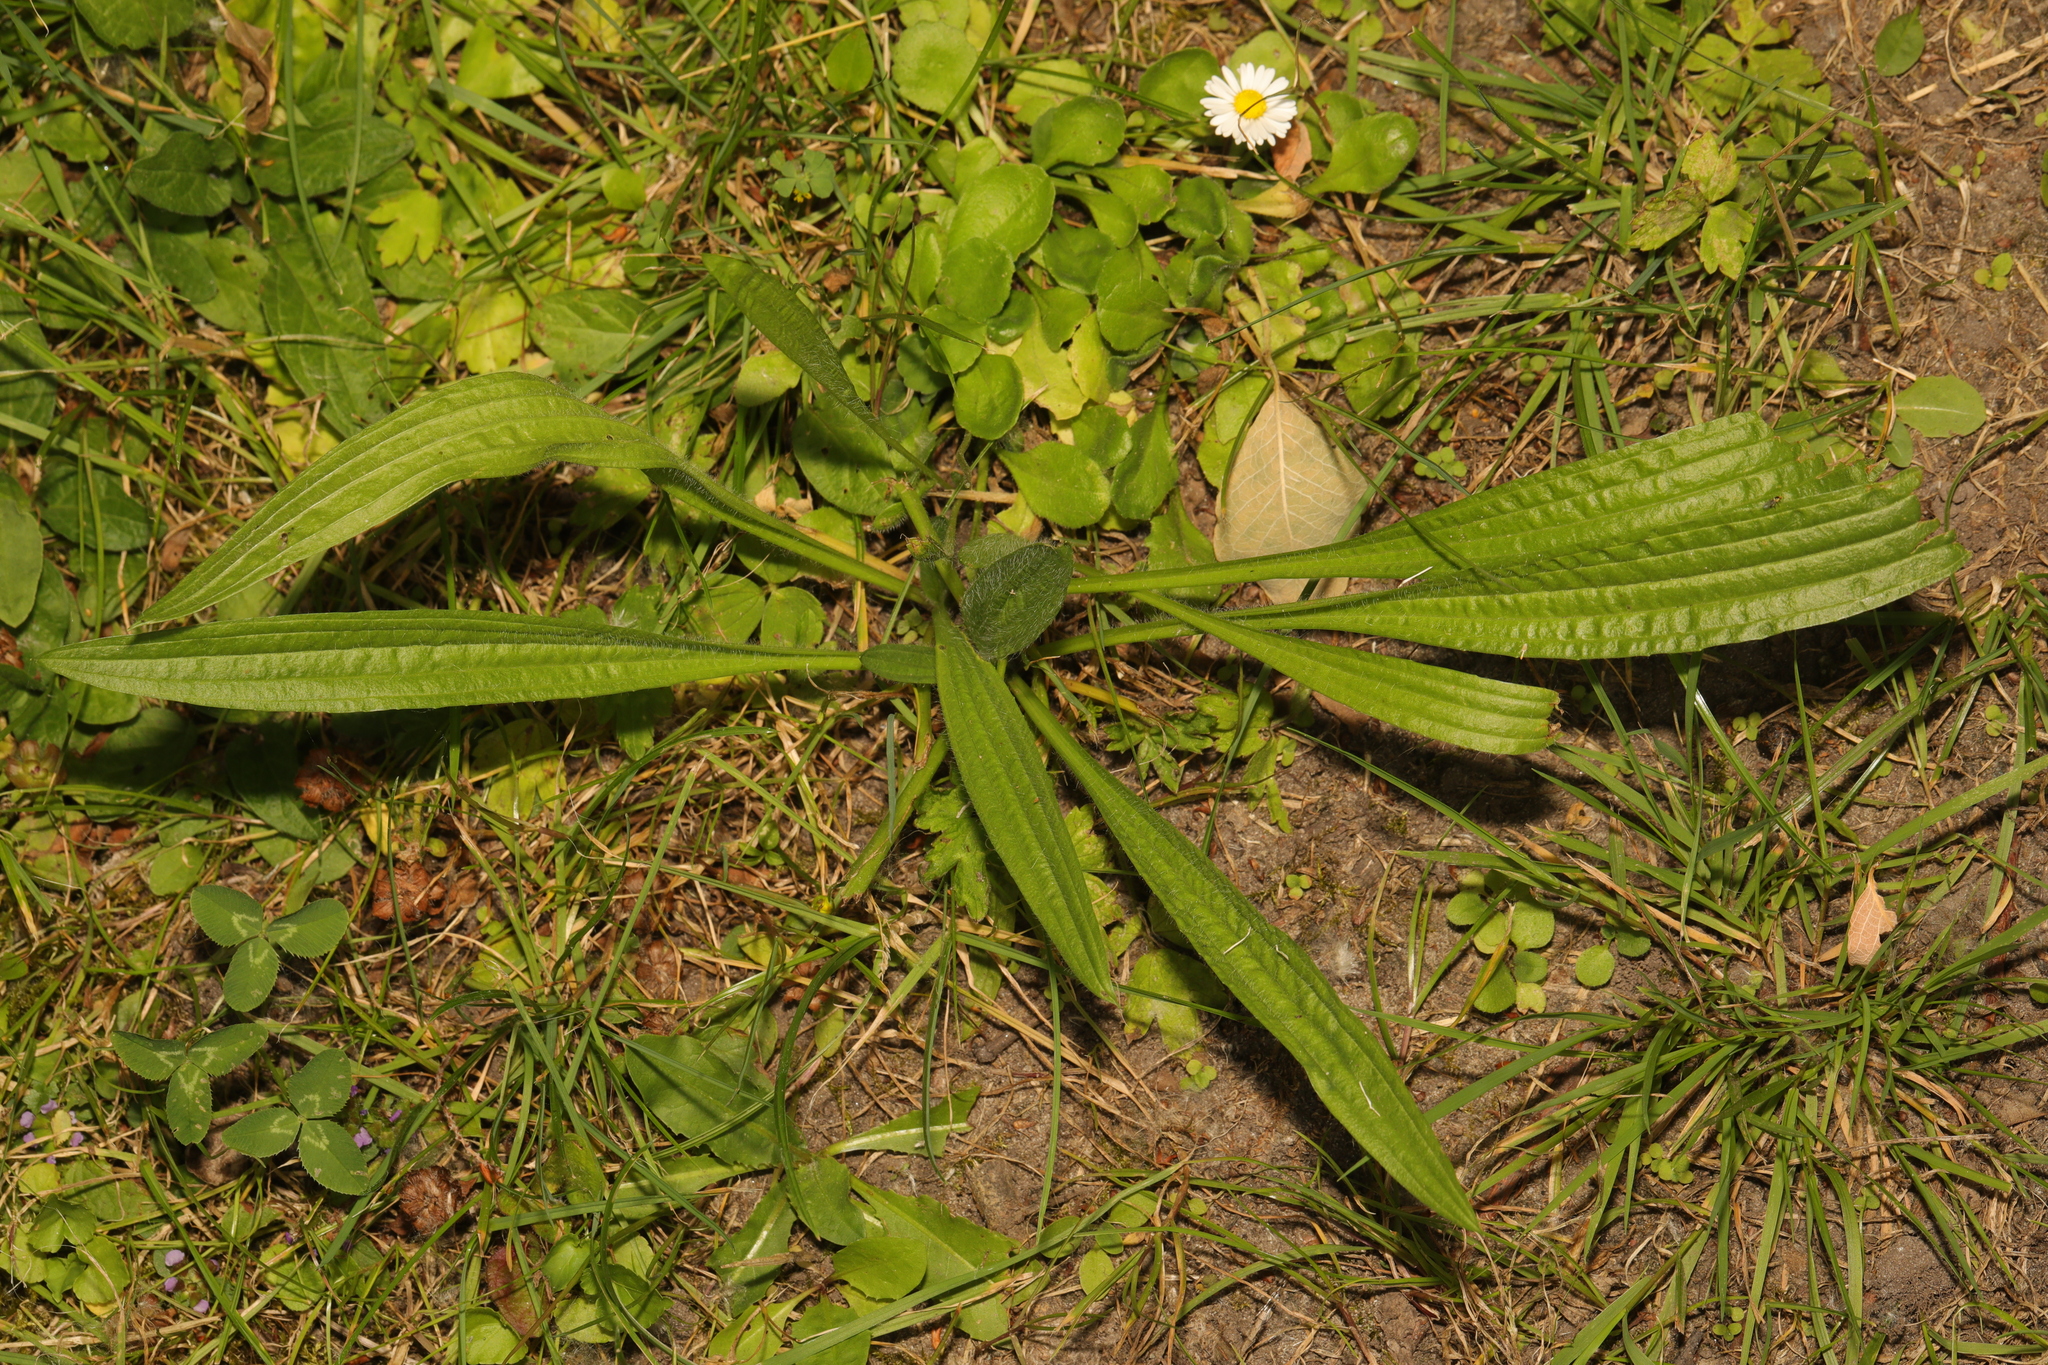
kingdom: Plantae
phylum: Tracheophyta
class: Magnoliopsida
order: Lamiales
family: Plantaginaceae
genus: Plantago
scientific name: Plantago lanceolata
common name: Ribwort plantain
